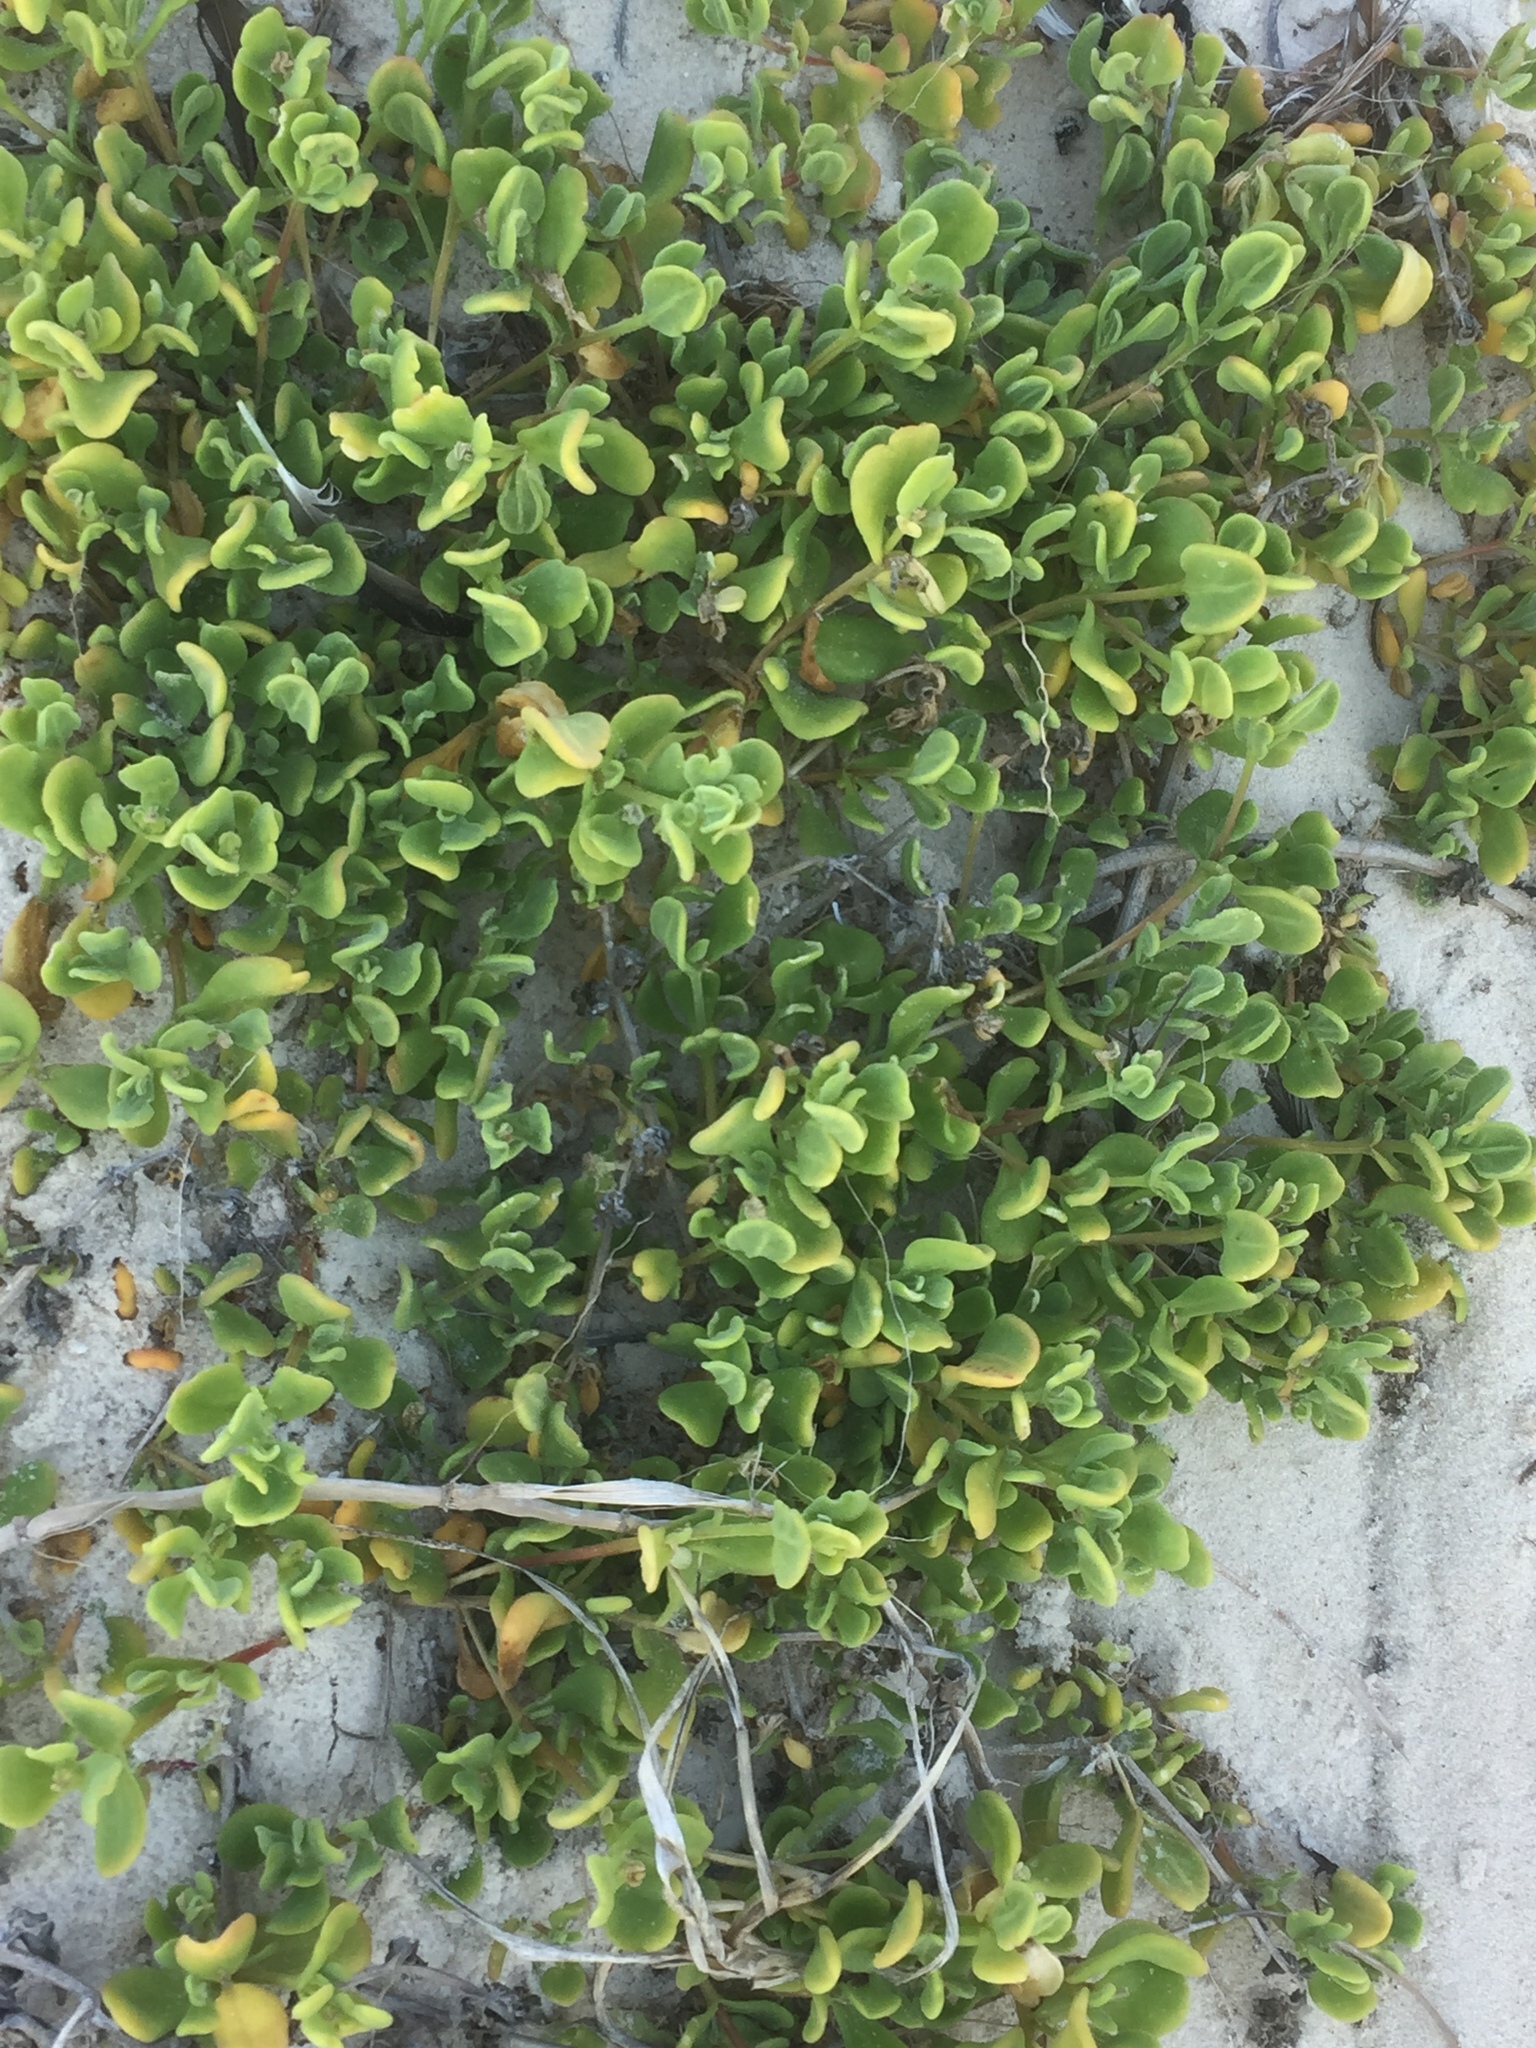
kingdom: Plantae
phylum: Tracheophyta
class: Magnoliopsida
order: Caryophyllales
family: Aizoaceae
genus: Tetragonia
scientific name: Tetragonia decumbens
